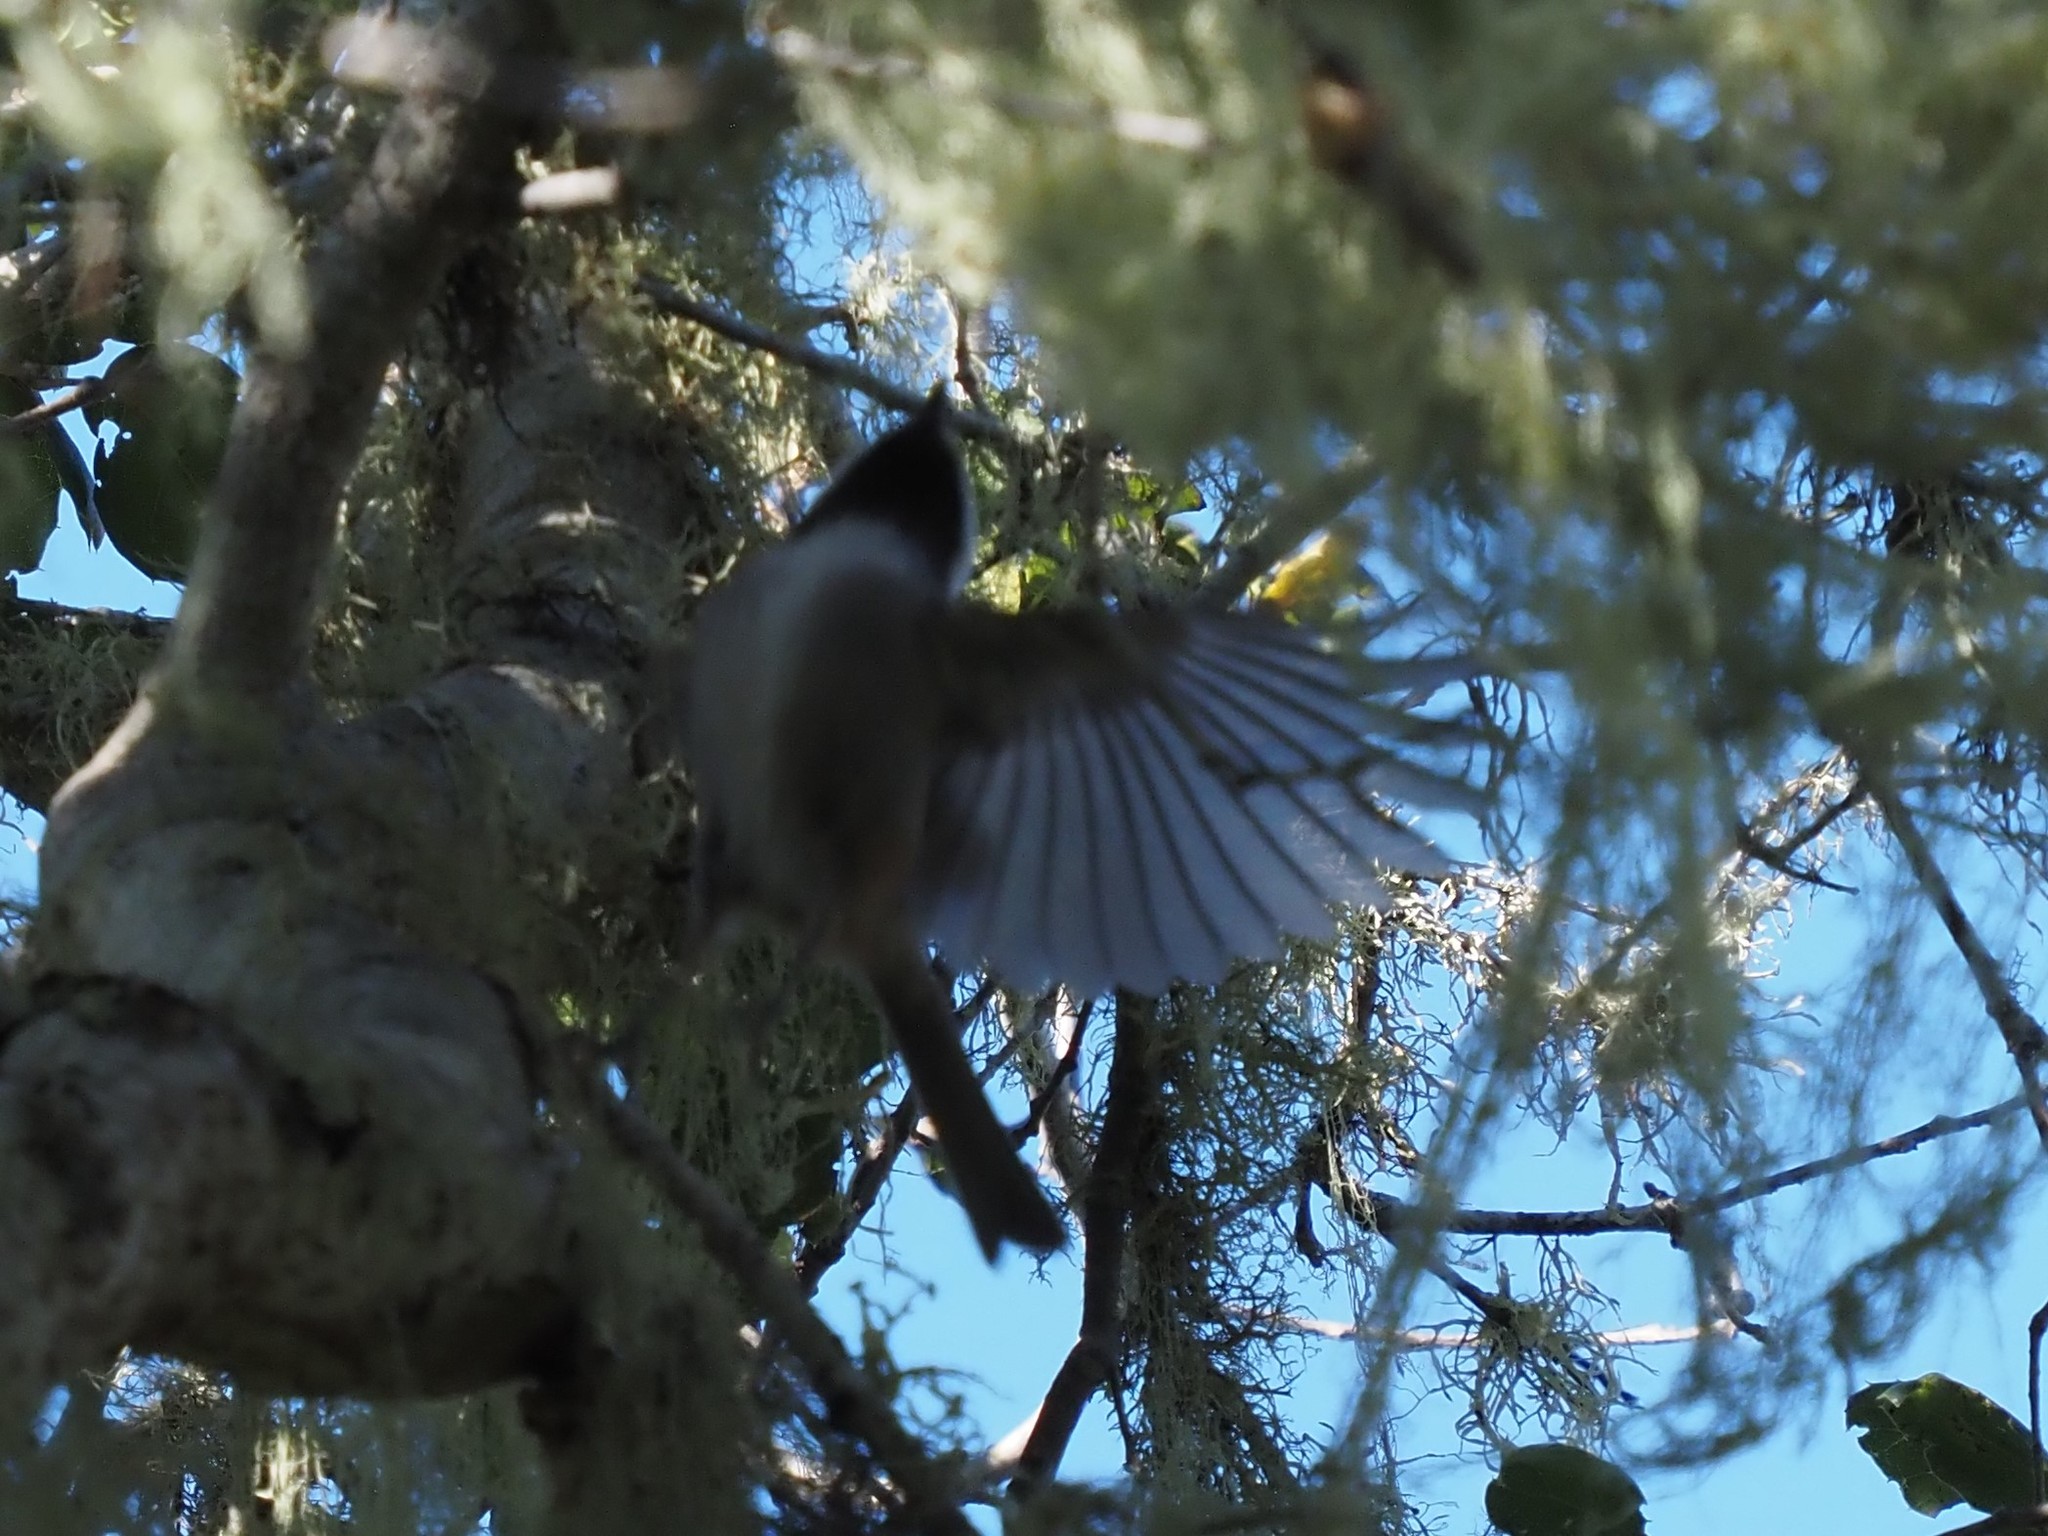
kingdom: Animalia
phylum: Chordata
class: Aves
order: Passeriformes
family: Paridae
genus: Poecile
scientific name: Poecile rufescens
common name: Chestnut-backed chickadee
